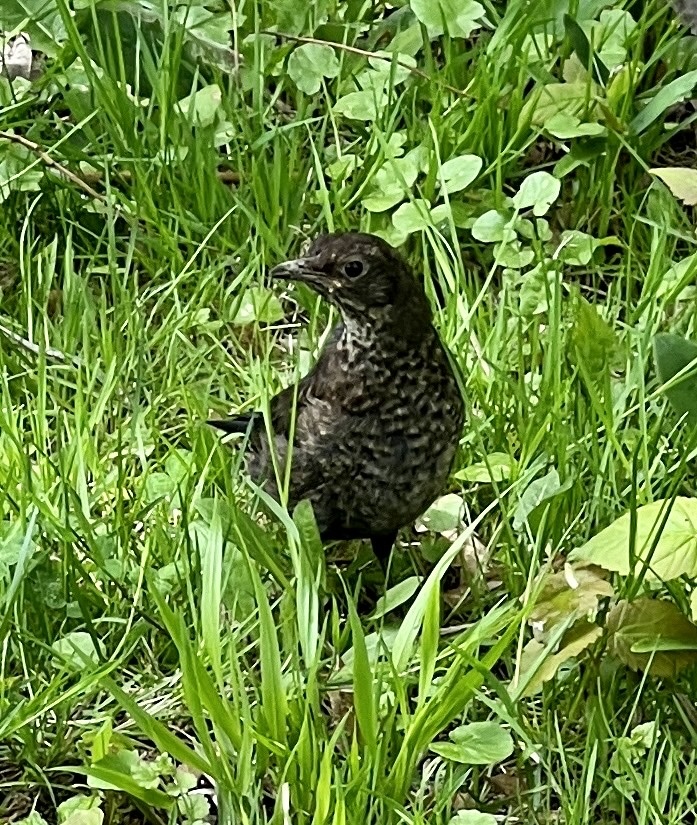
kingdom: Animalia
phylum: Chordata
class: Aves
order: Passeriformes
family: Turdidae
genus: Turdus
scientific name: Turdus merula
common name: Common blackbird
